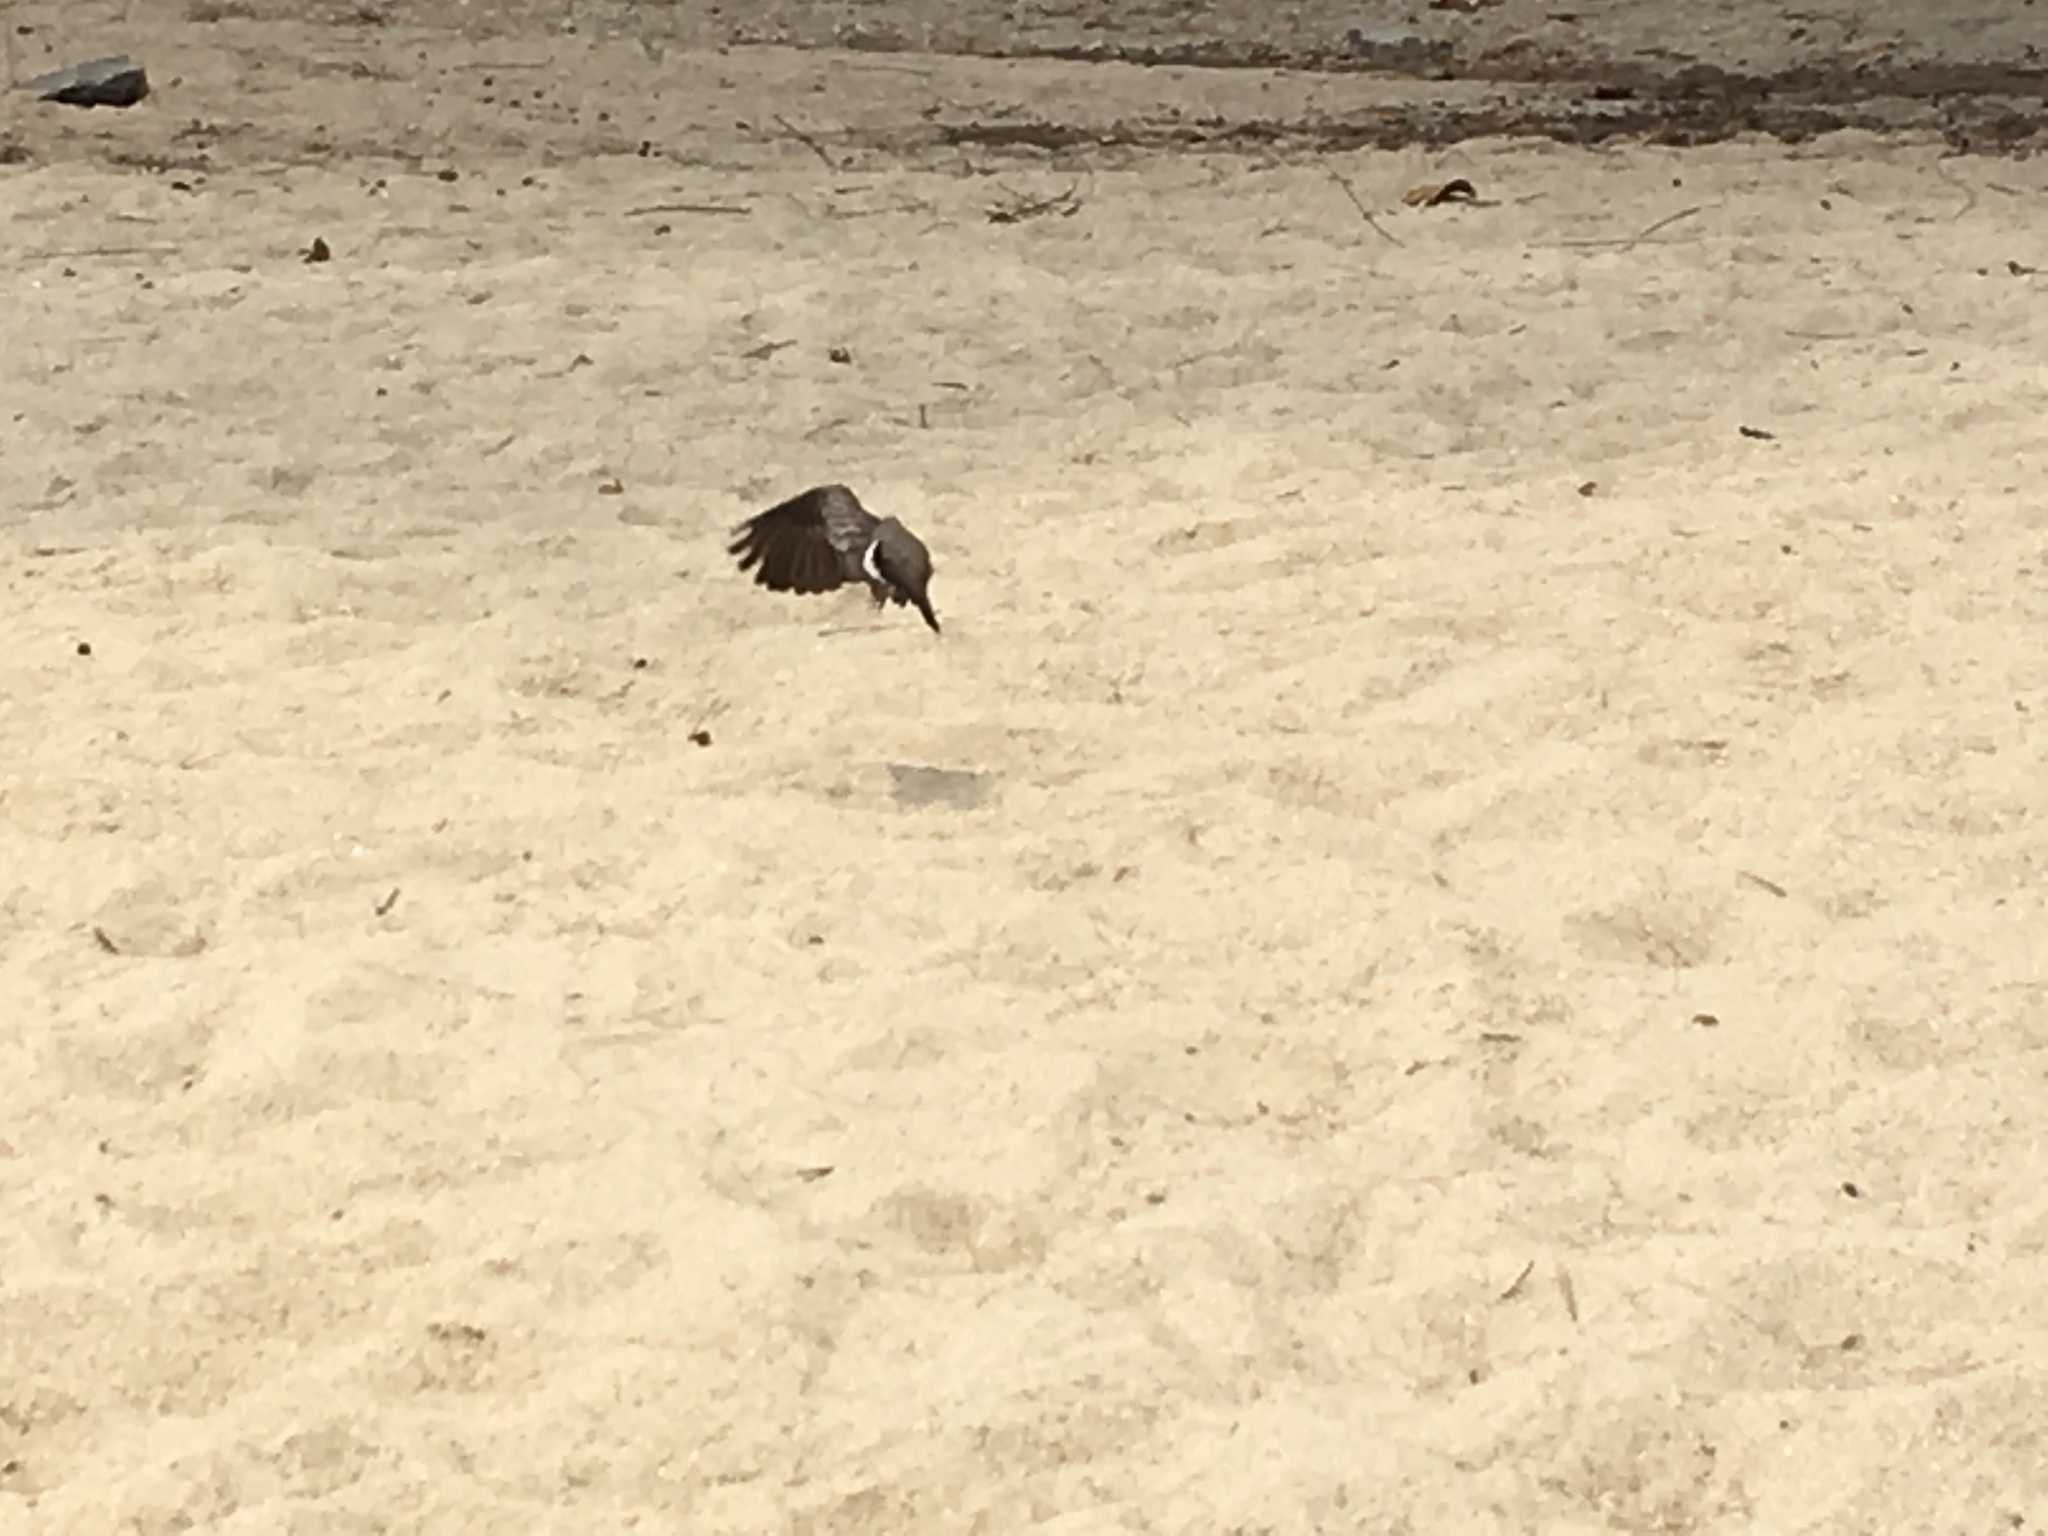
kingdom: Animalia
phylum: Chordata
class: Aves
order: Columbiformes
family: Columbidae
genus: Geopelia
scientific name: Geopelia striata
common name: Zebra dove
